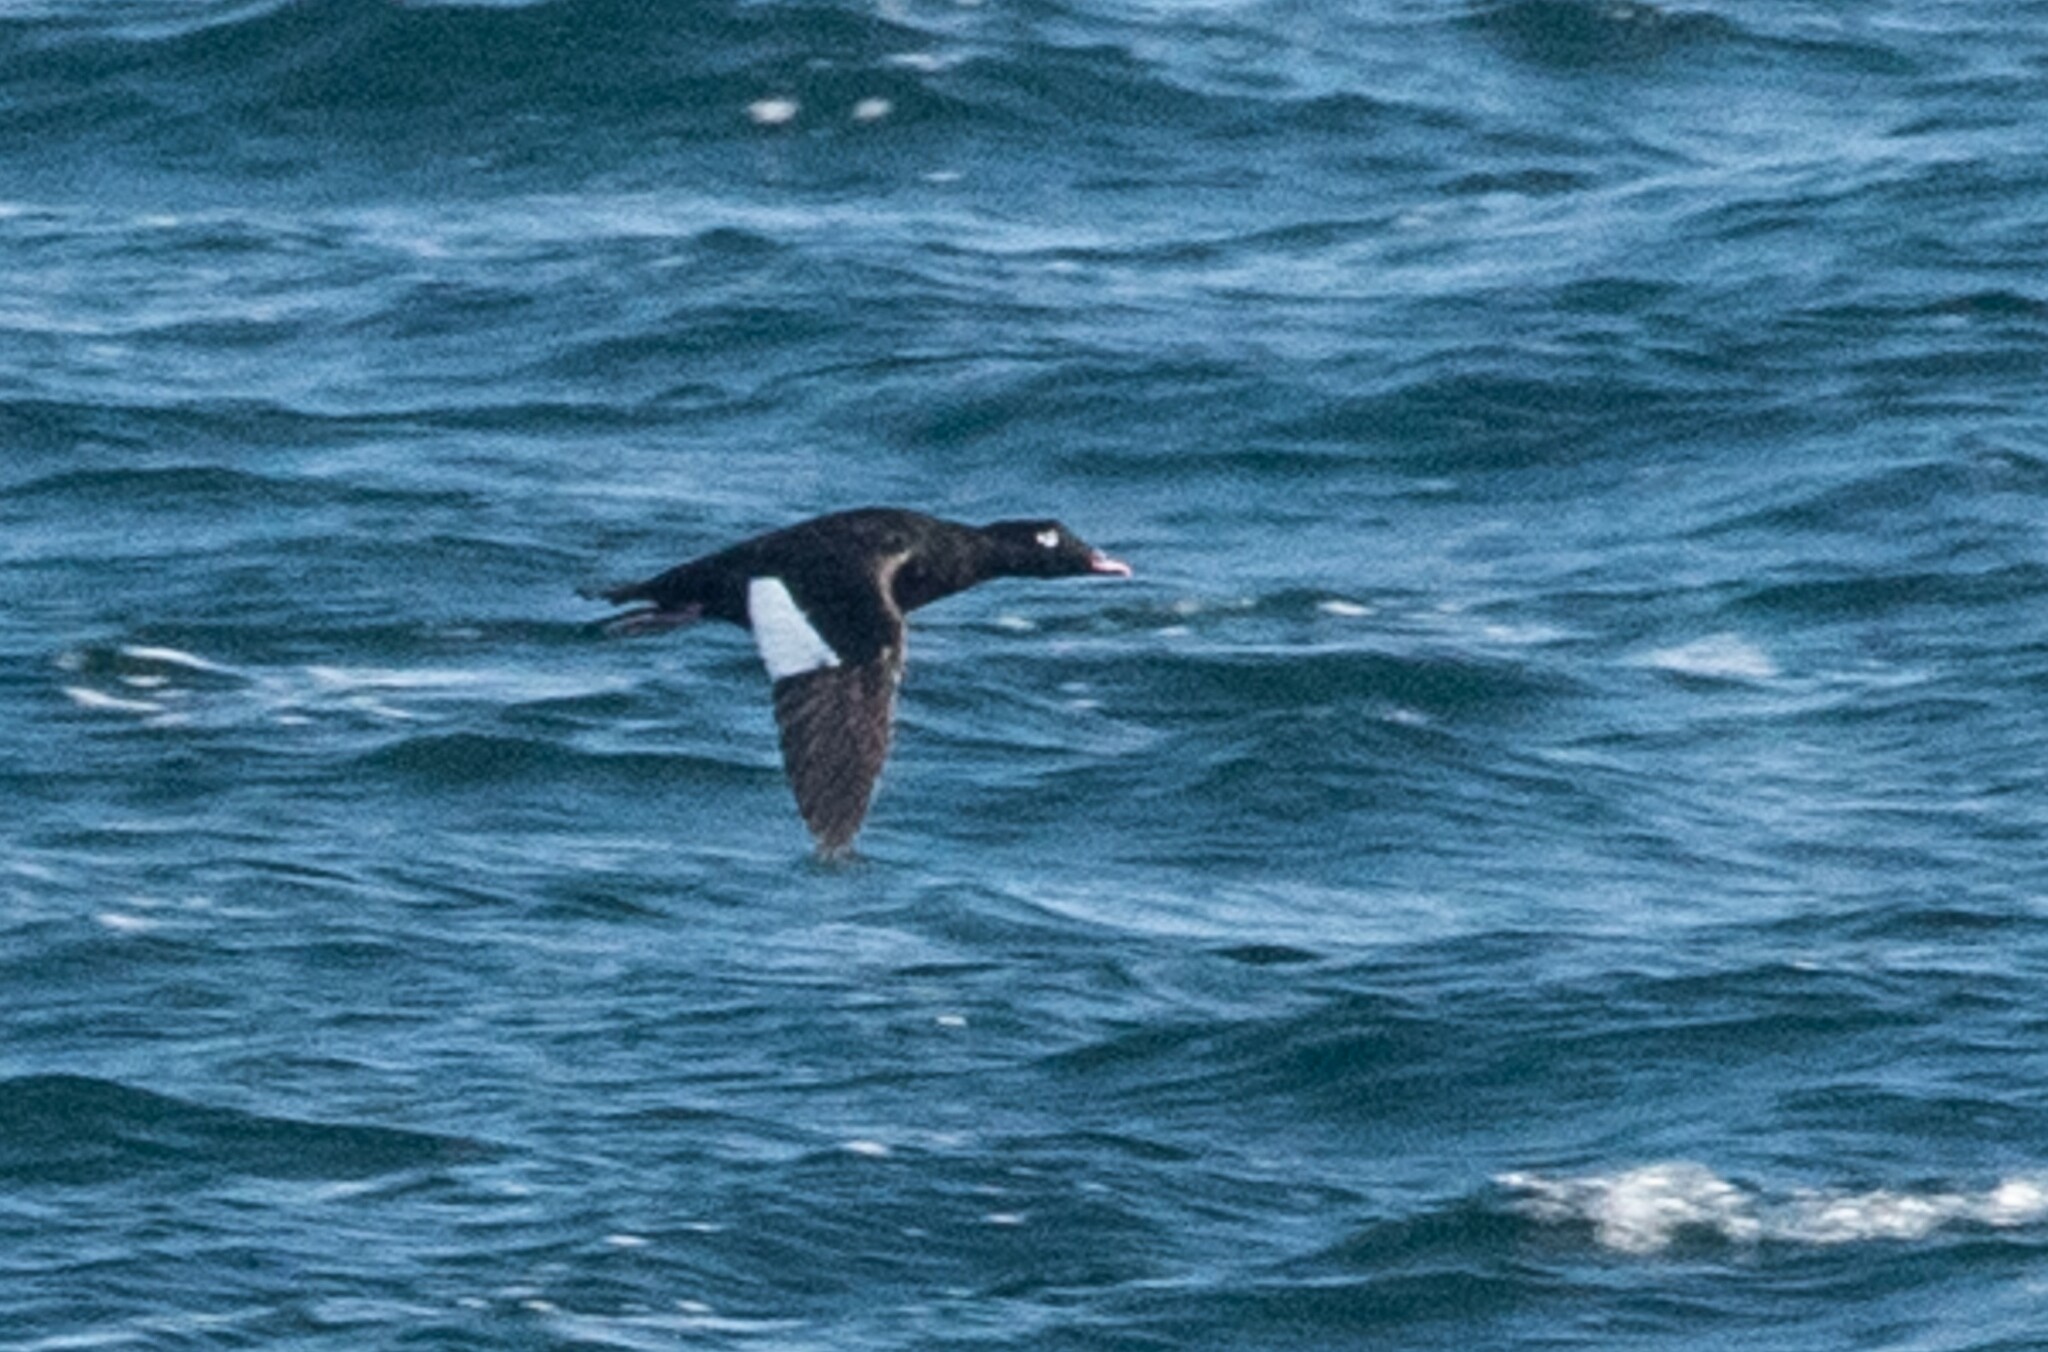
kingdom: Animalia
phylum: Chordata
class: Aves
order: Anseriformes
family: Anatidae
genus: Melanitta
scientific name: Melanitta deglandi
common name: White-winged scoter
